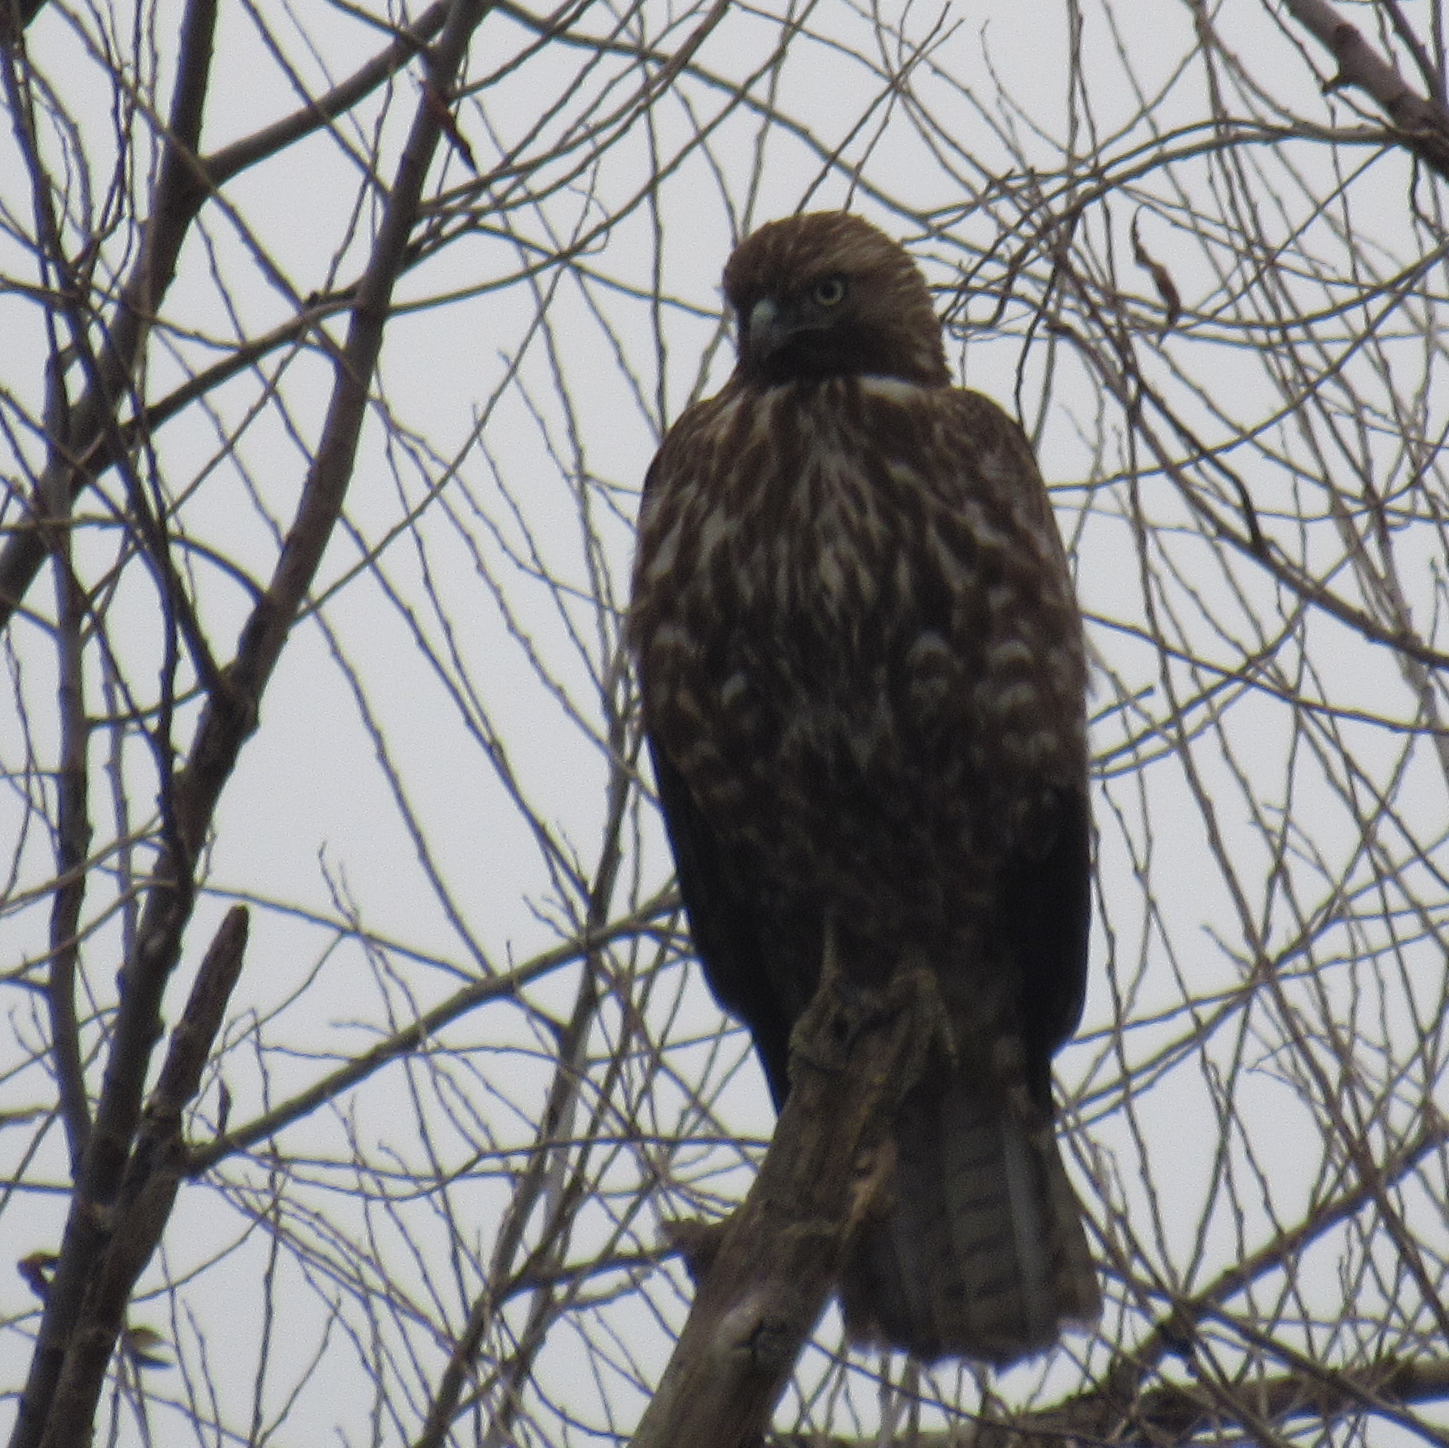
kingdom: Animalia
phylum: Chordata
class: Aves
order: Accipitriformes
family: Accipitridae
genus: Buteo
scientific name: Buteo jamaicensis
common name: Red-tailed hawk
